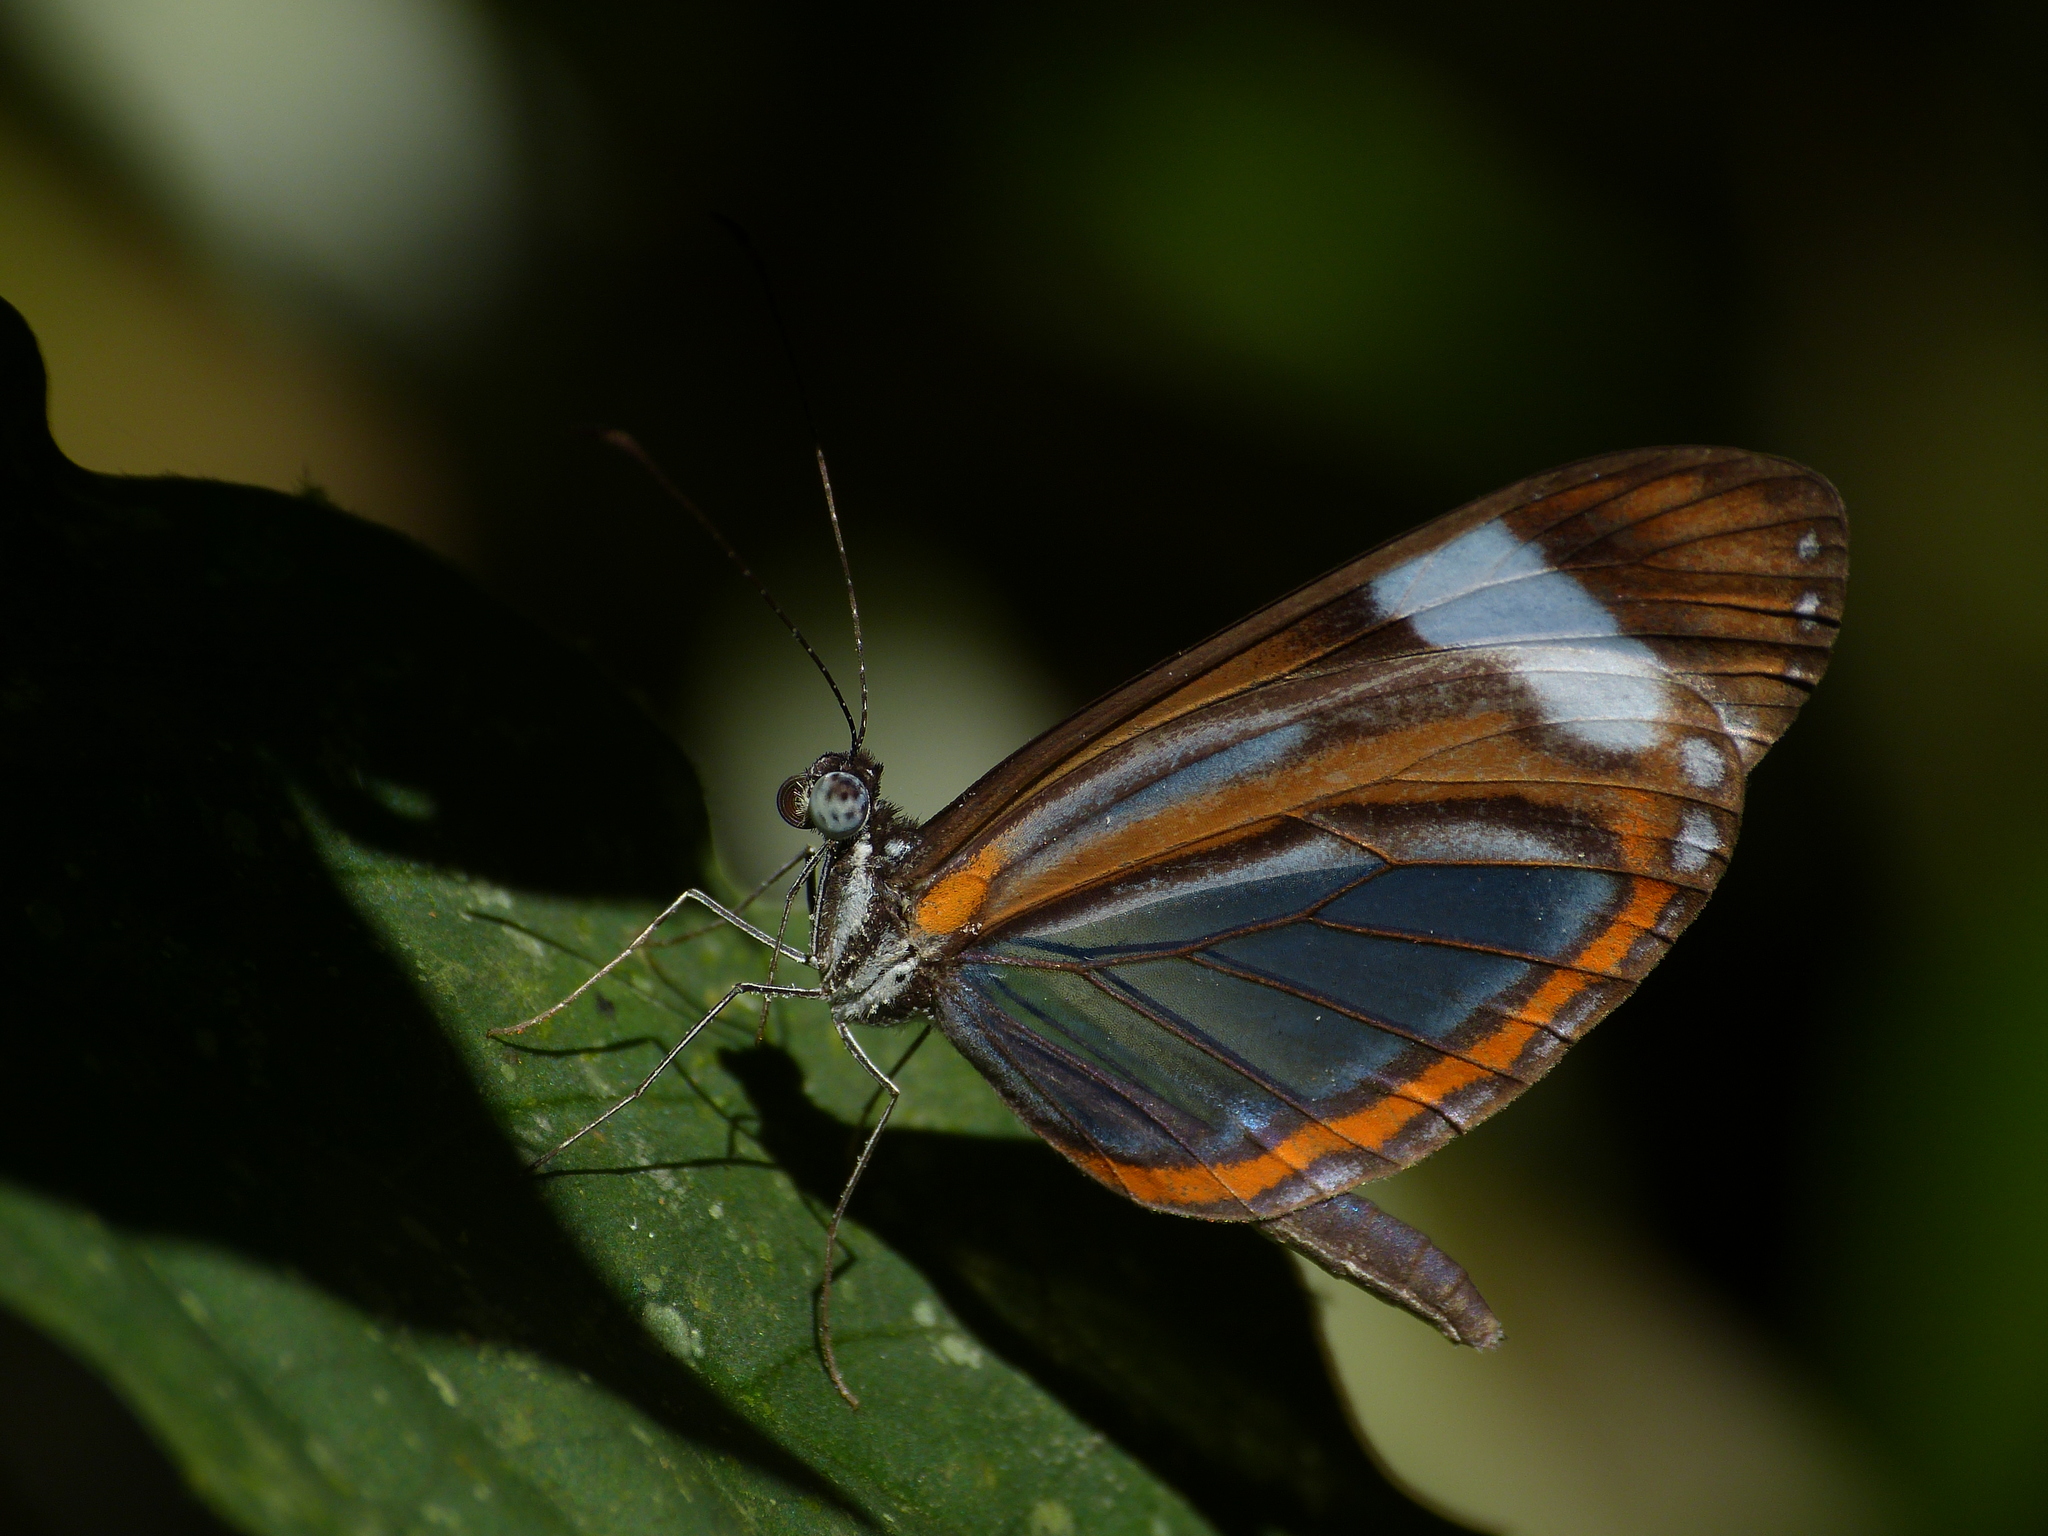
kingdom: Animalia
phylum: Arthropoda
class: Insecta
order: Lepidoptera
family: Pieridae
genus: Dismorphia
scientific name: Dismorphia theucharila
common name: Clearwing mimic-white
